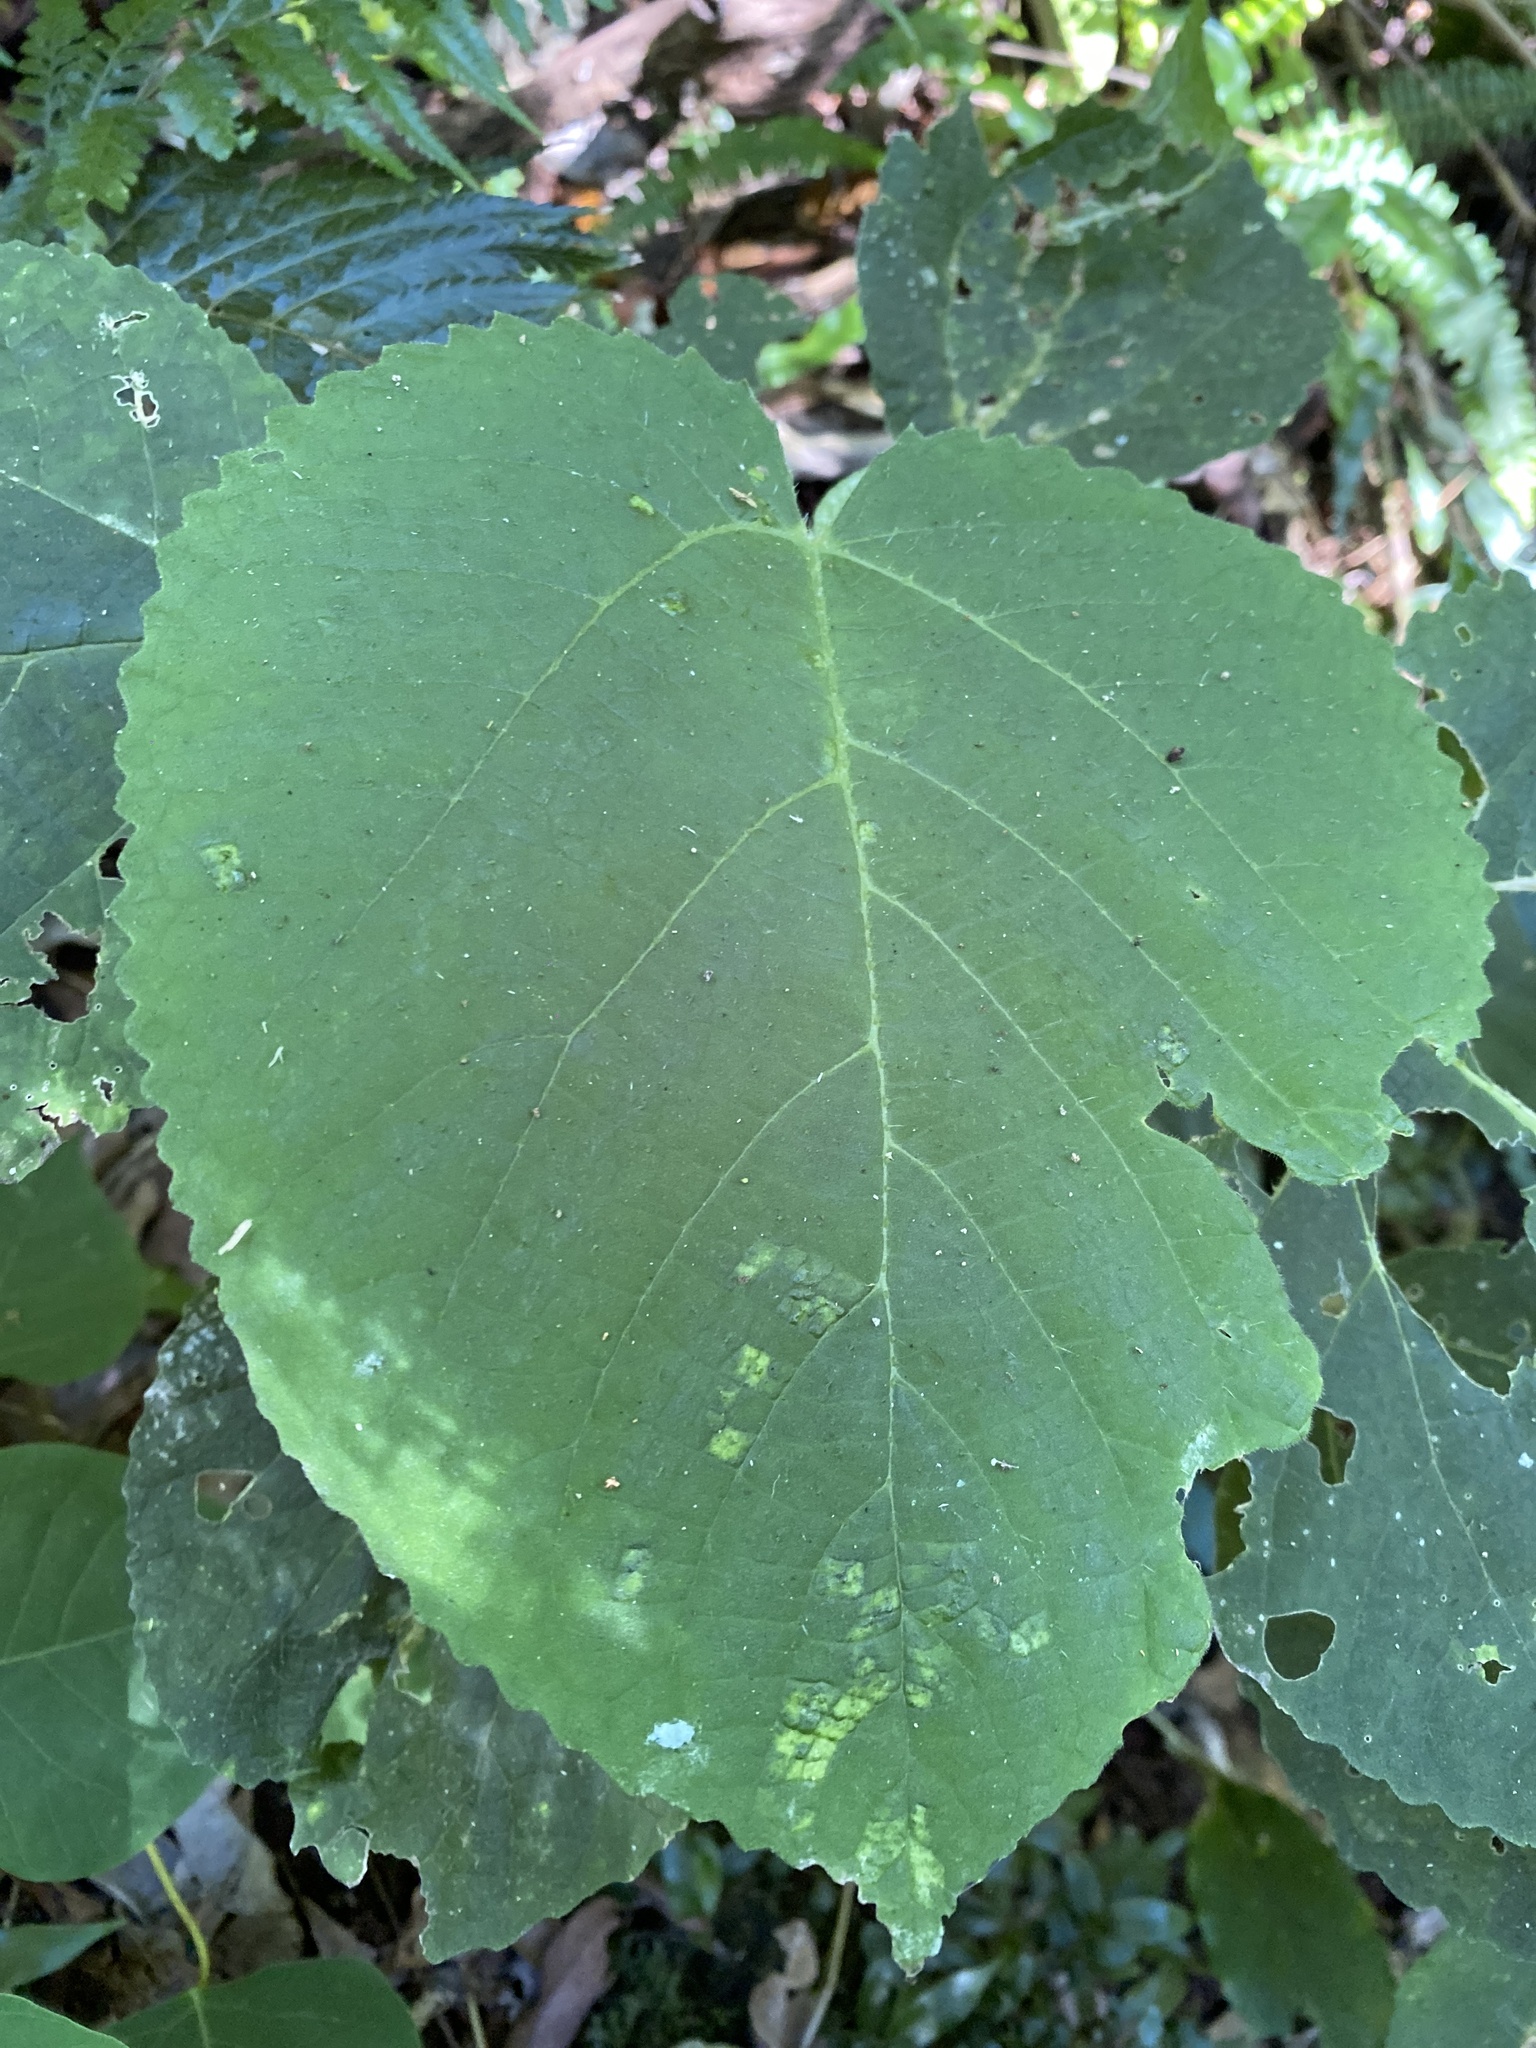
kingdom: Plantae
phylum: Tracheophyta
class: Magnoliopsida
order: Rosales
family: Urticaceae
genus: Dendrocnide
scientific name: Dendrocnide excelsa
